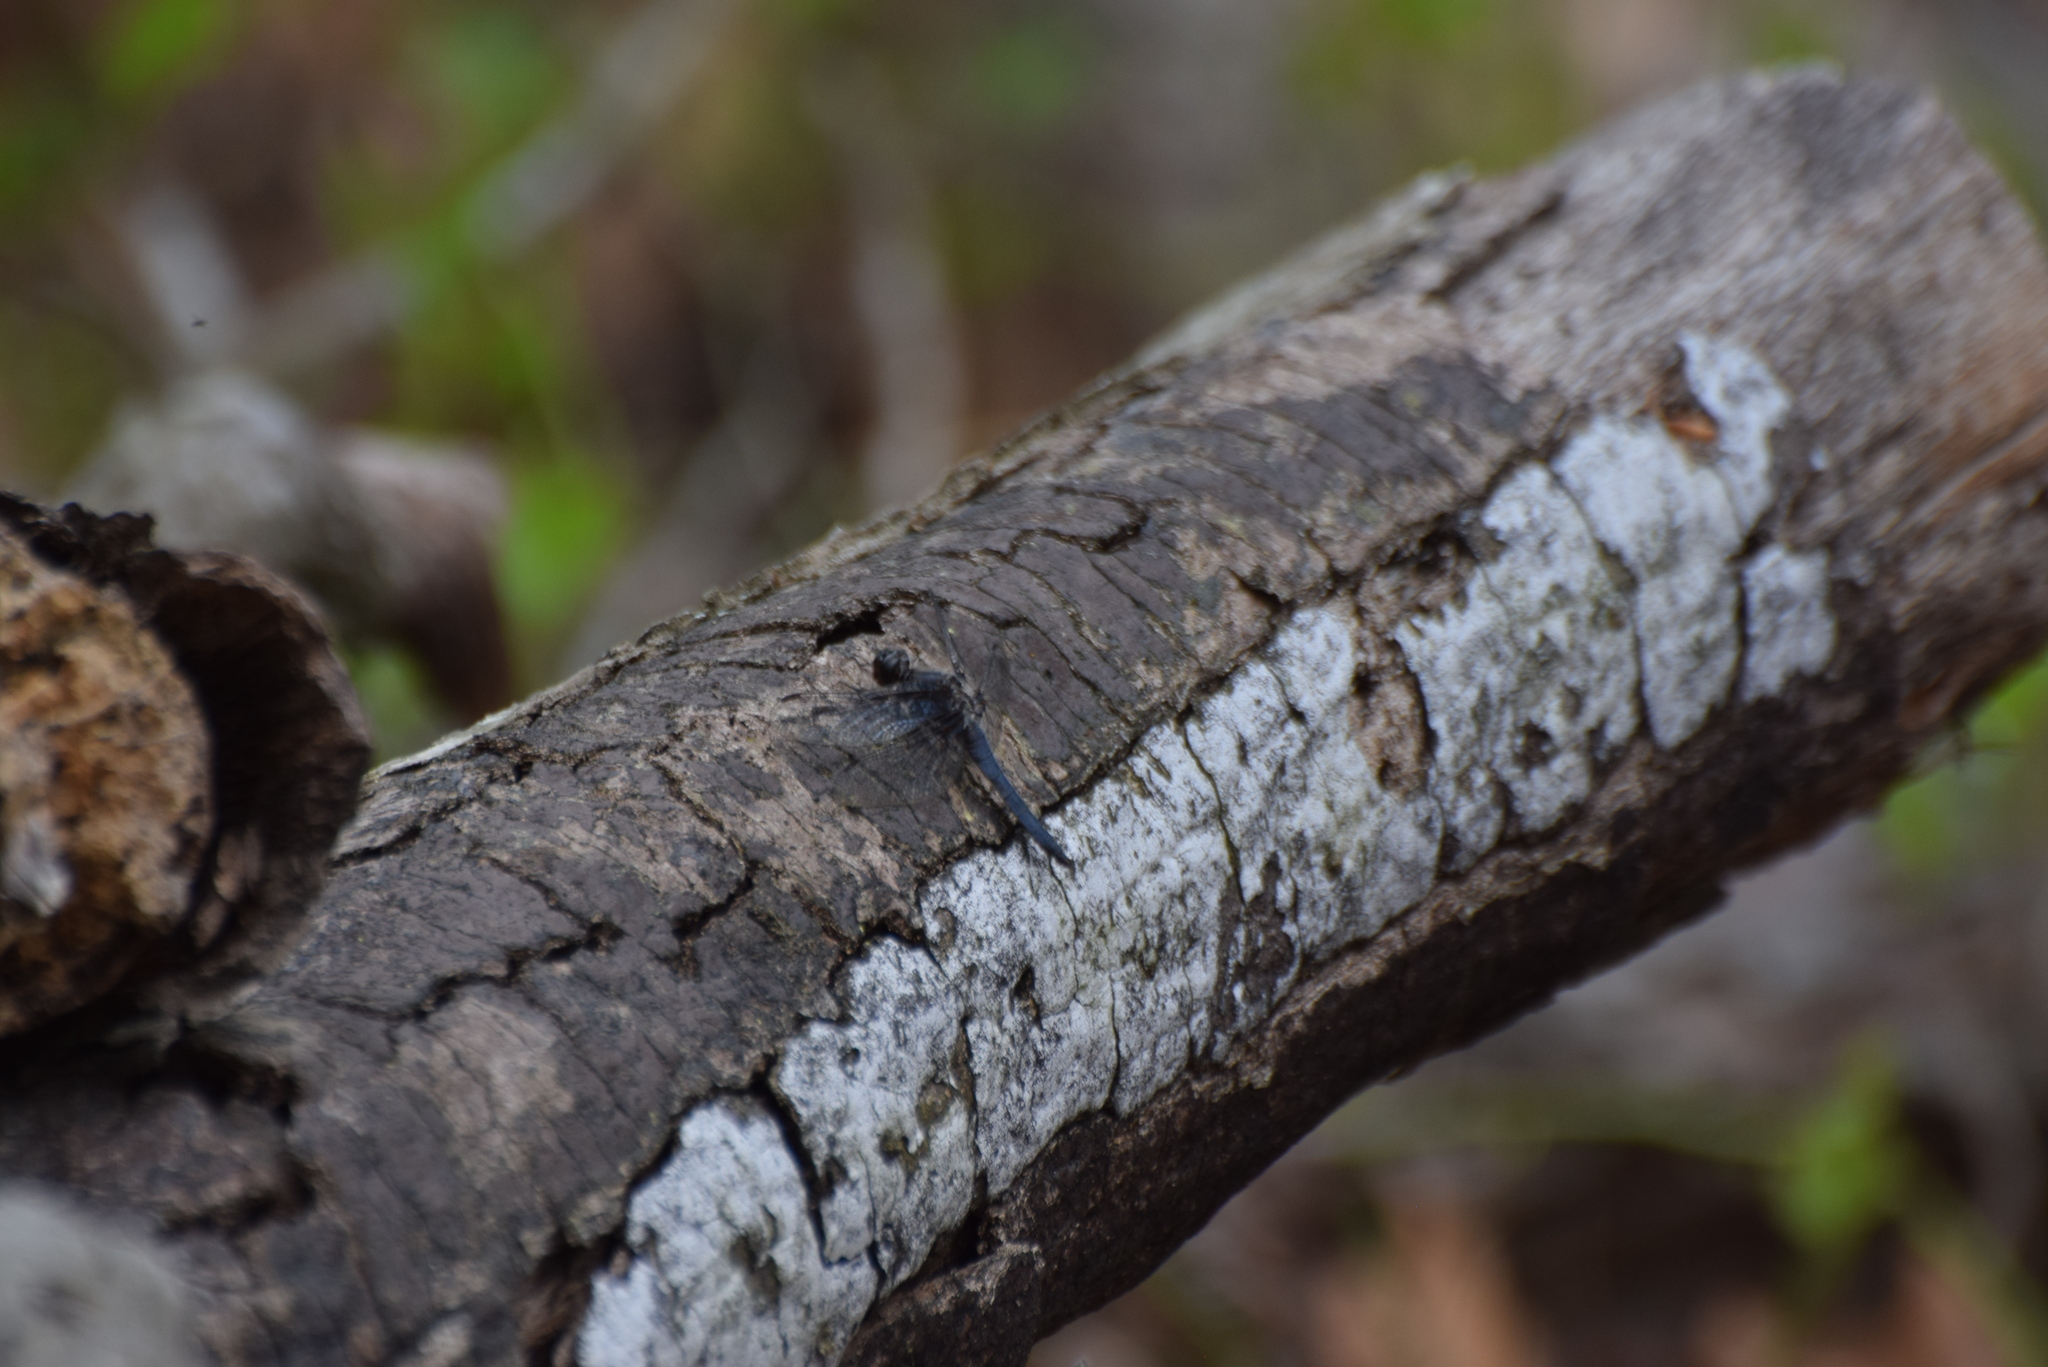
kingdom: Animalia
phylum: Arthropoda
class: Insecta
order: Odonata
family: Libellulidae
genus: Ladona
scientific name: Ladona deplanata
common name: Blue corporal
